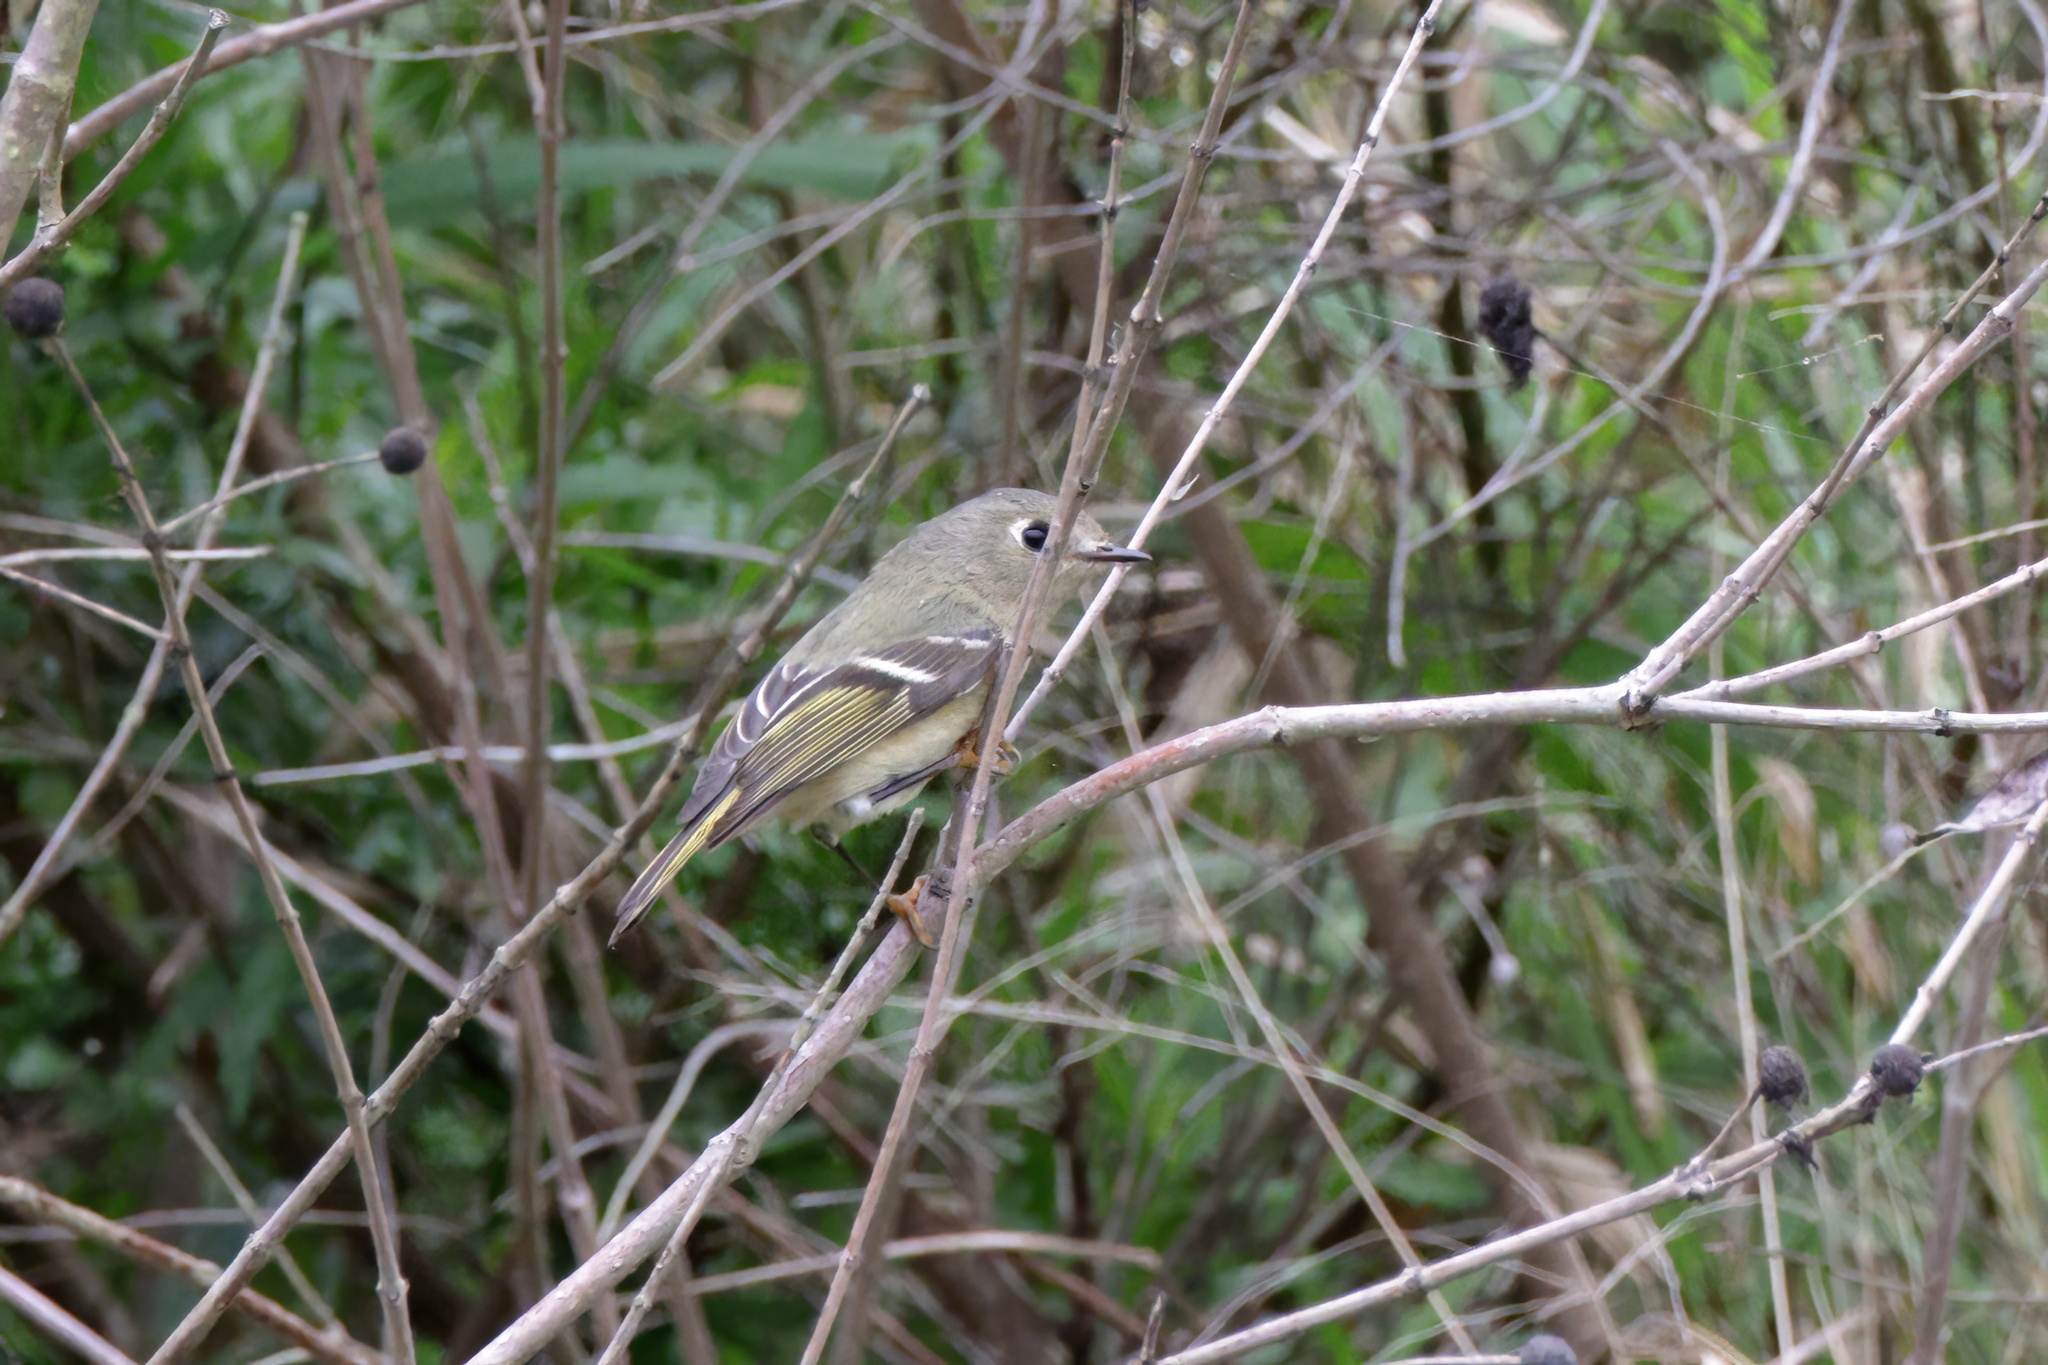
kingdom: Animalia
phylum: Chordata
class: Aves
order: Passeriformes
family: Regulidae
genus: Regulus
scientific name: Regulus calendula
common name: Ruby-crowned kinglet
